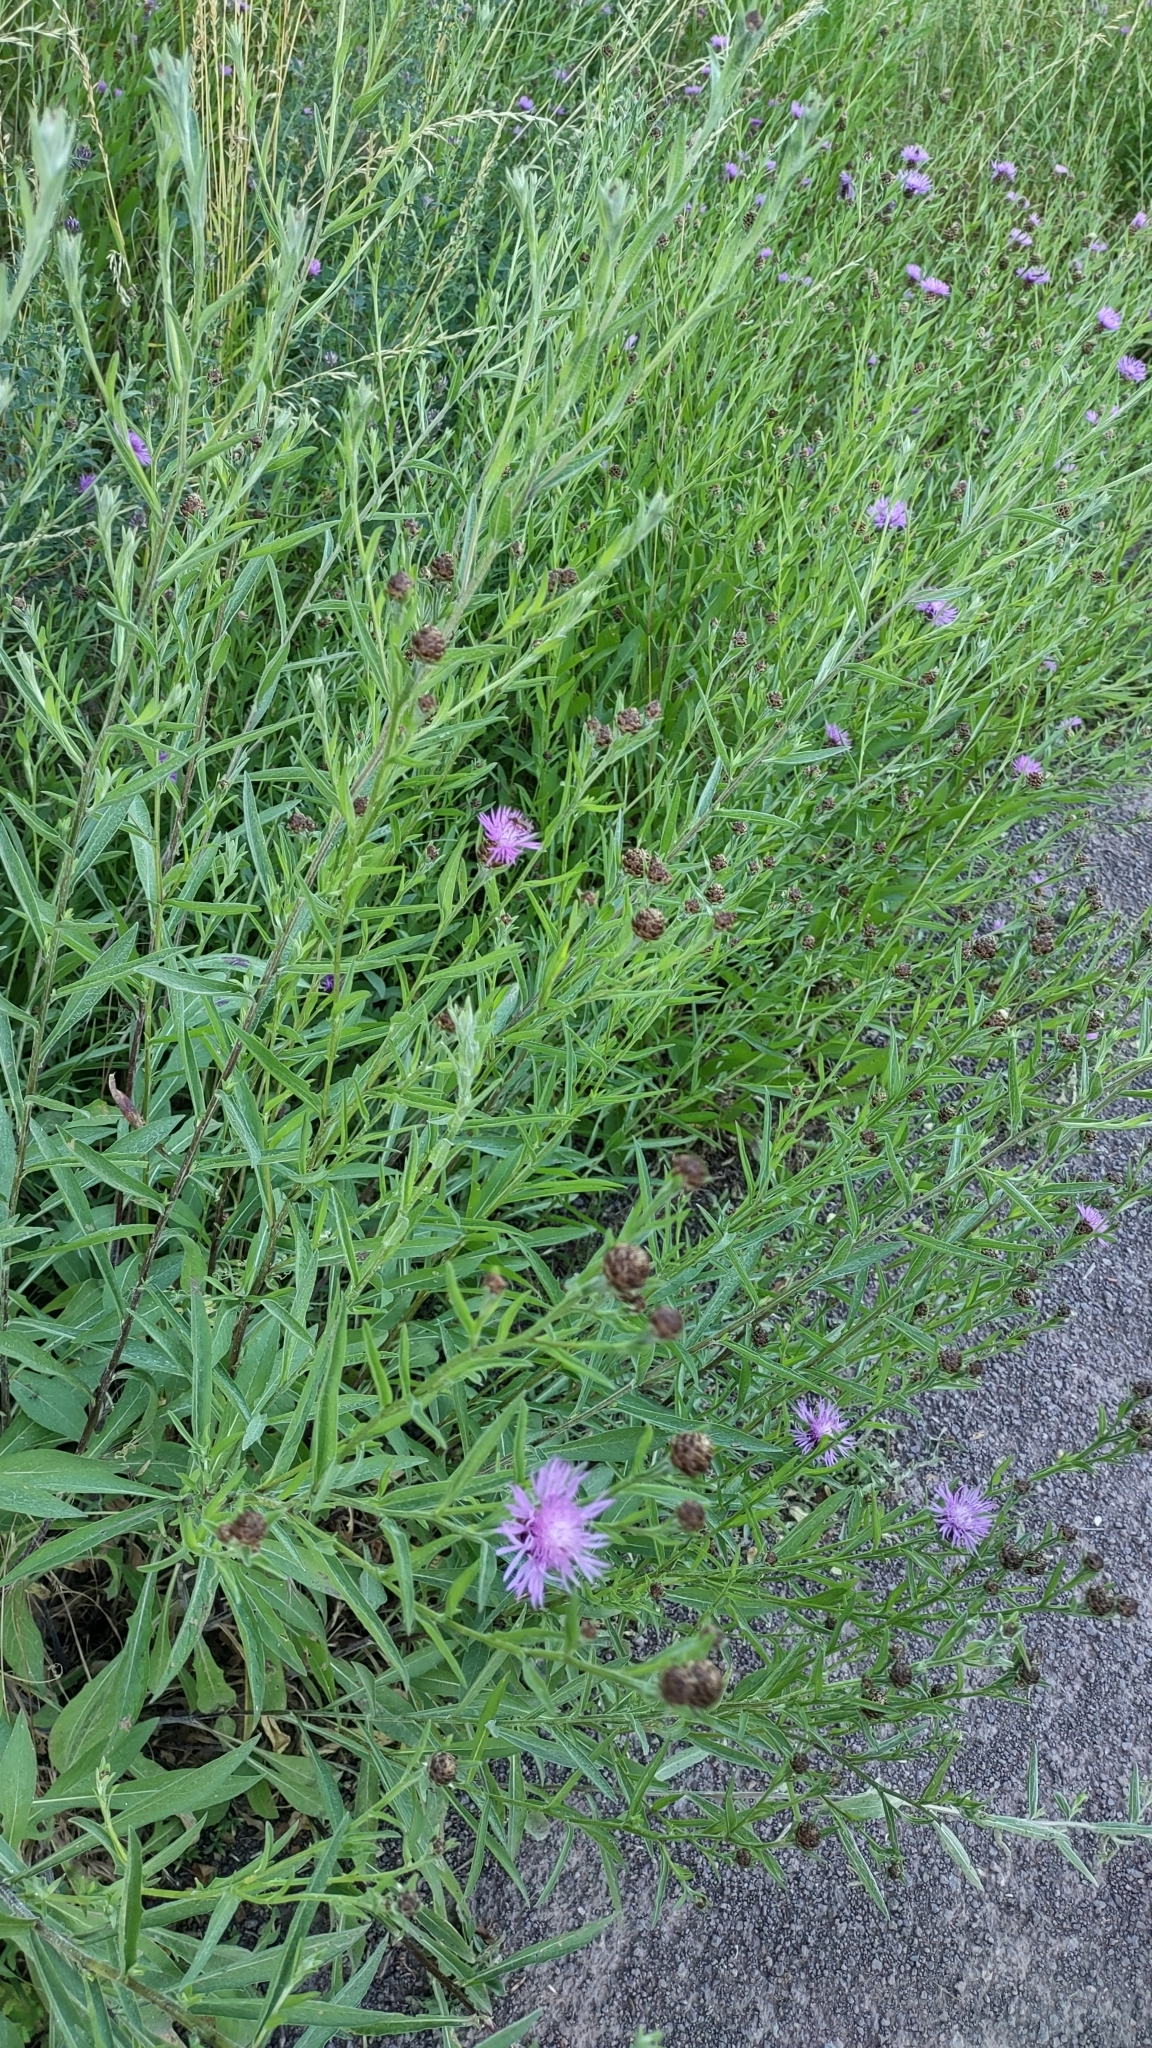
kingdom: Plantae
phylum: Tracheophyta
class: Magnoliopsida
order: Asterales
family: Asteraceae
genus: Centaurea
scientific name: Centaurea jacea
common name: Brown knapweed
